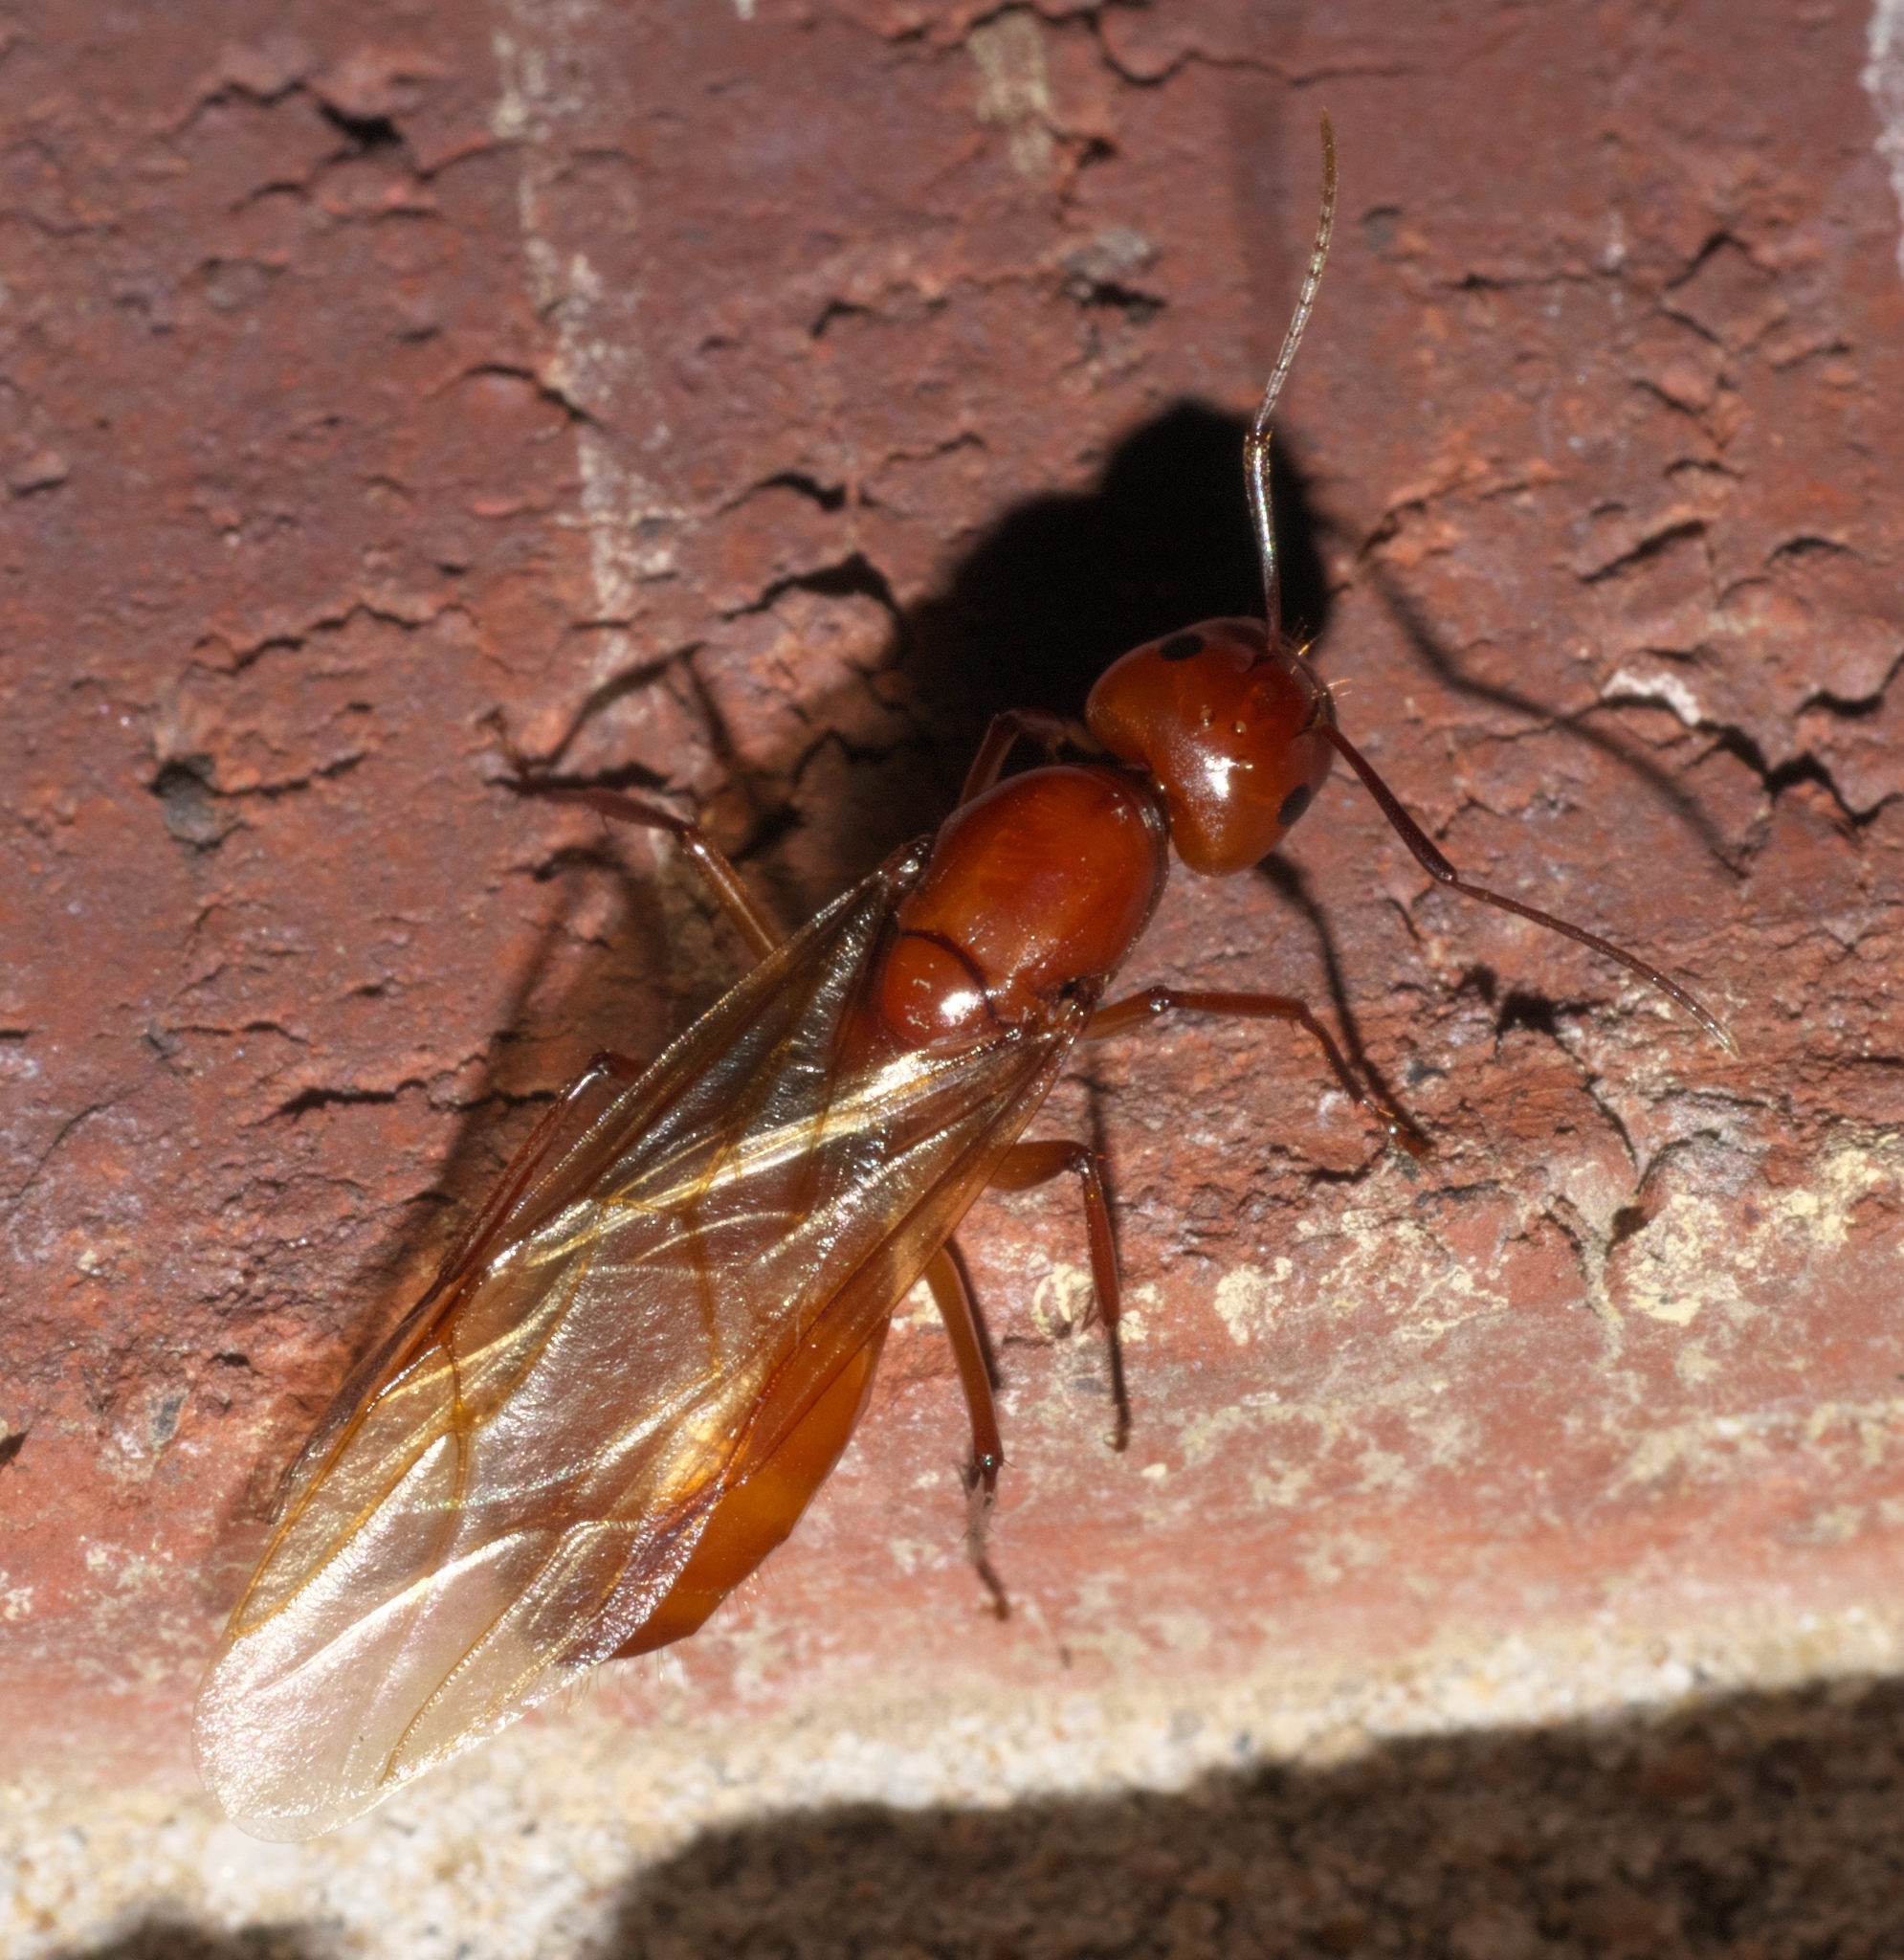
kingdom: Animalia
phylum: Arthropoda
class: Insecta
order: Hymenoptera
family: Formicidae
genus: Camponotus
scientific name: Camponotus castaneus
